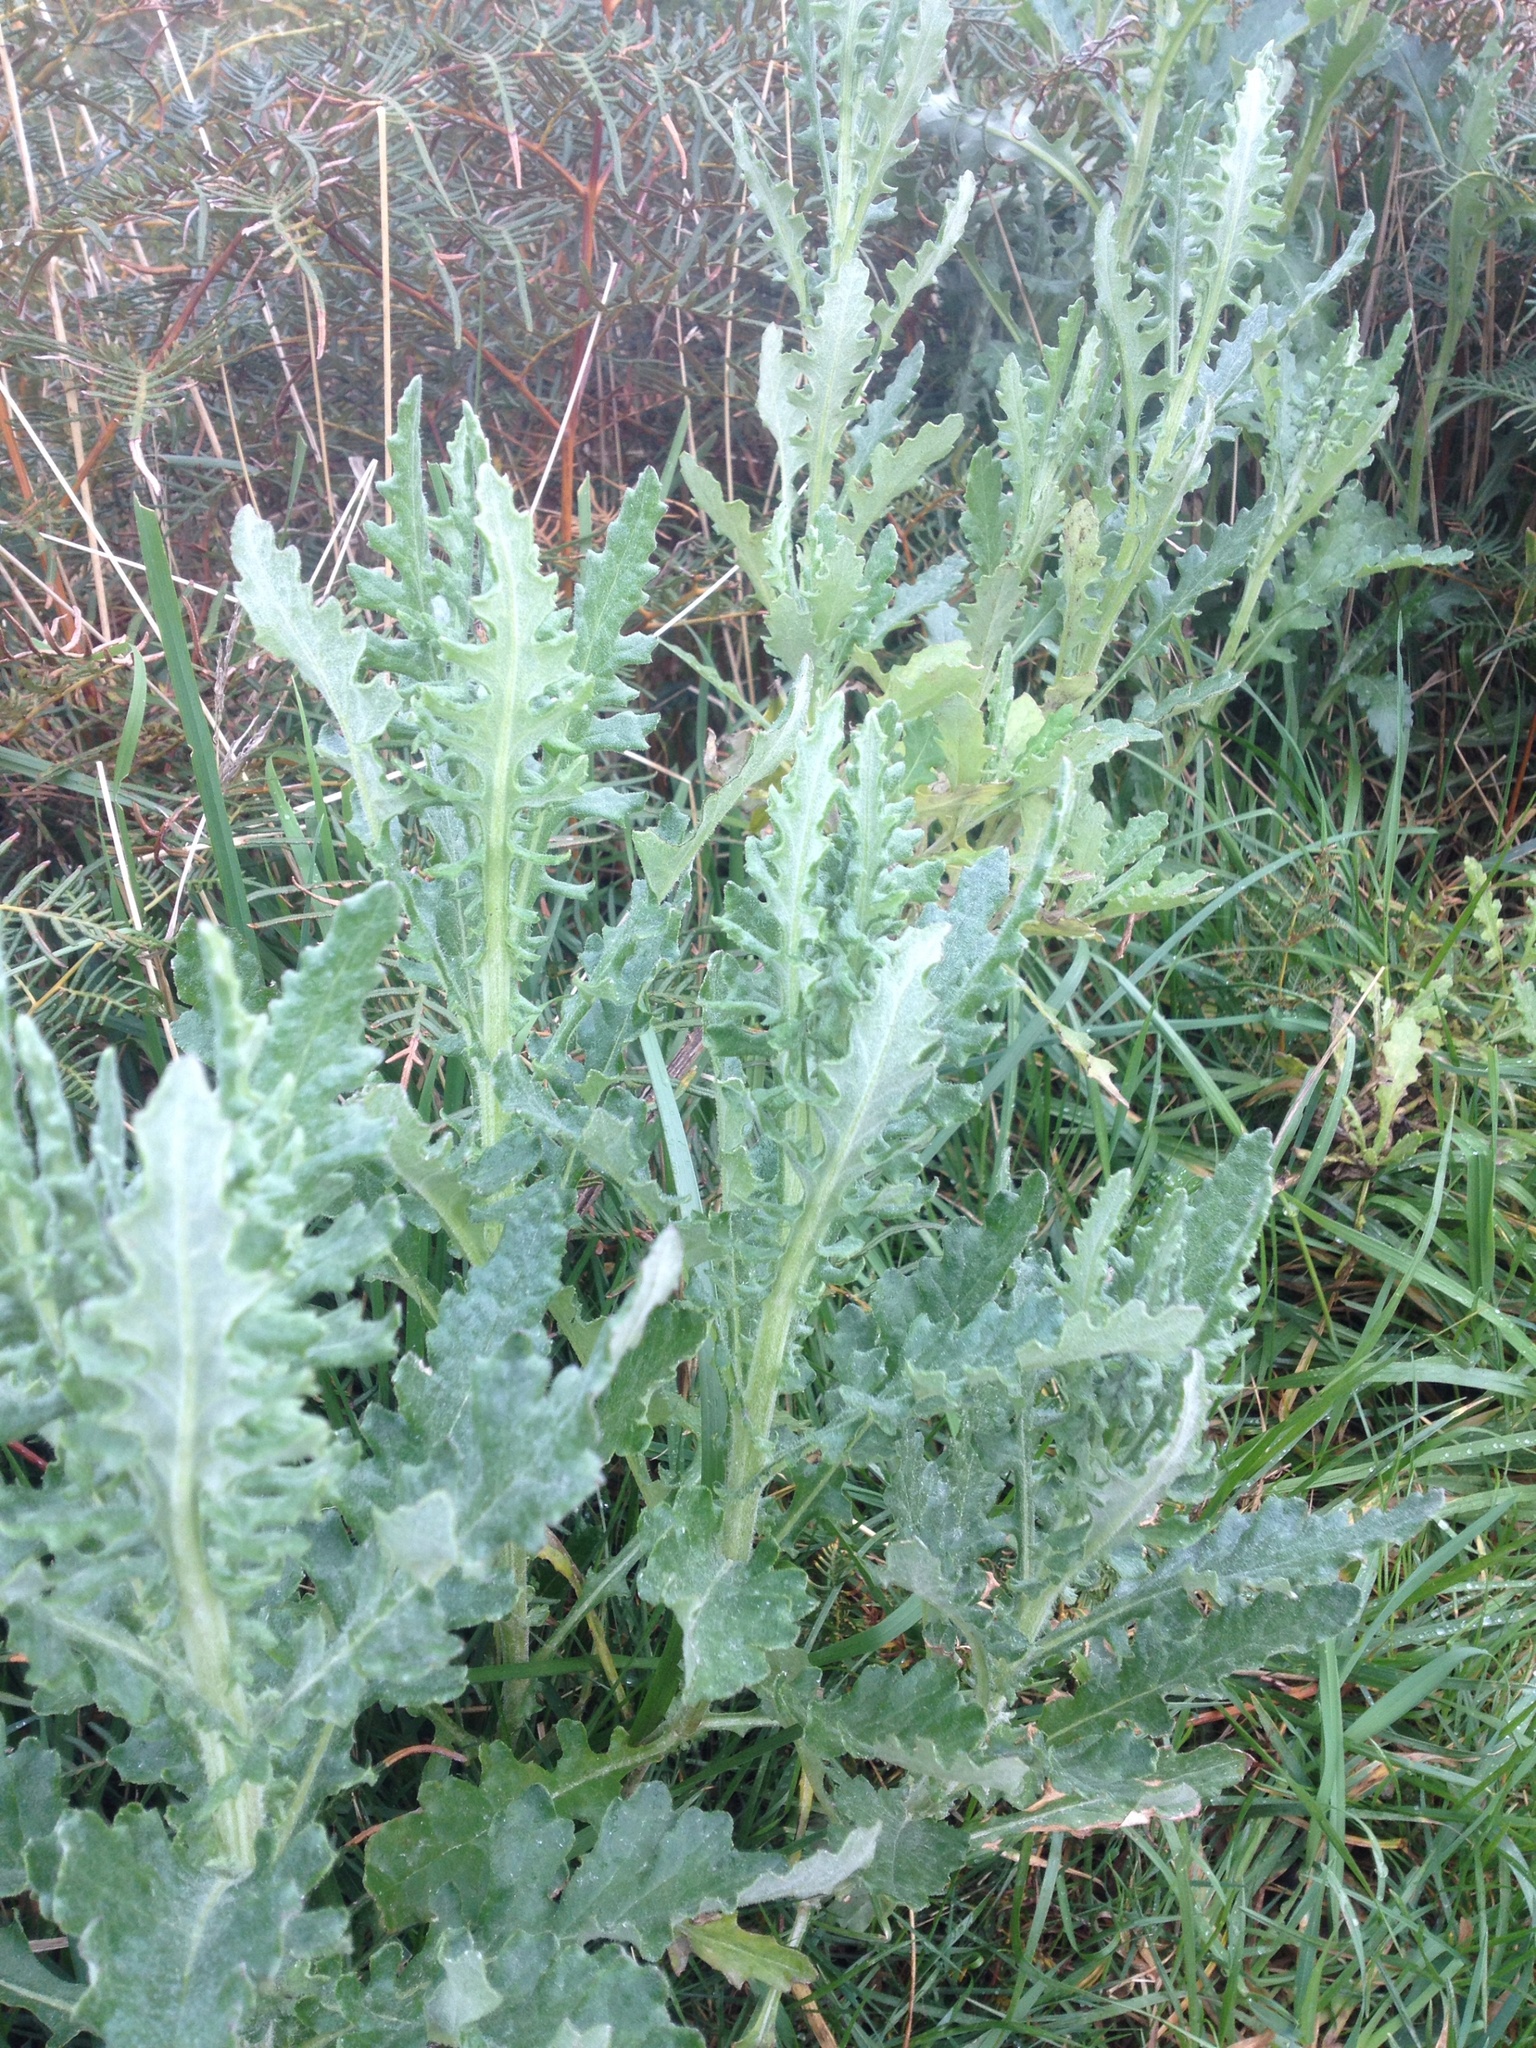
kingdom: Plantae
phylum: Tracheophyta
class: Magnoliopsida
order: Asterales
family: Asteraceae
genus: Senecio
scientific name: Senecio glomeratus
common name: Cutleaf burnweed
